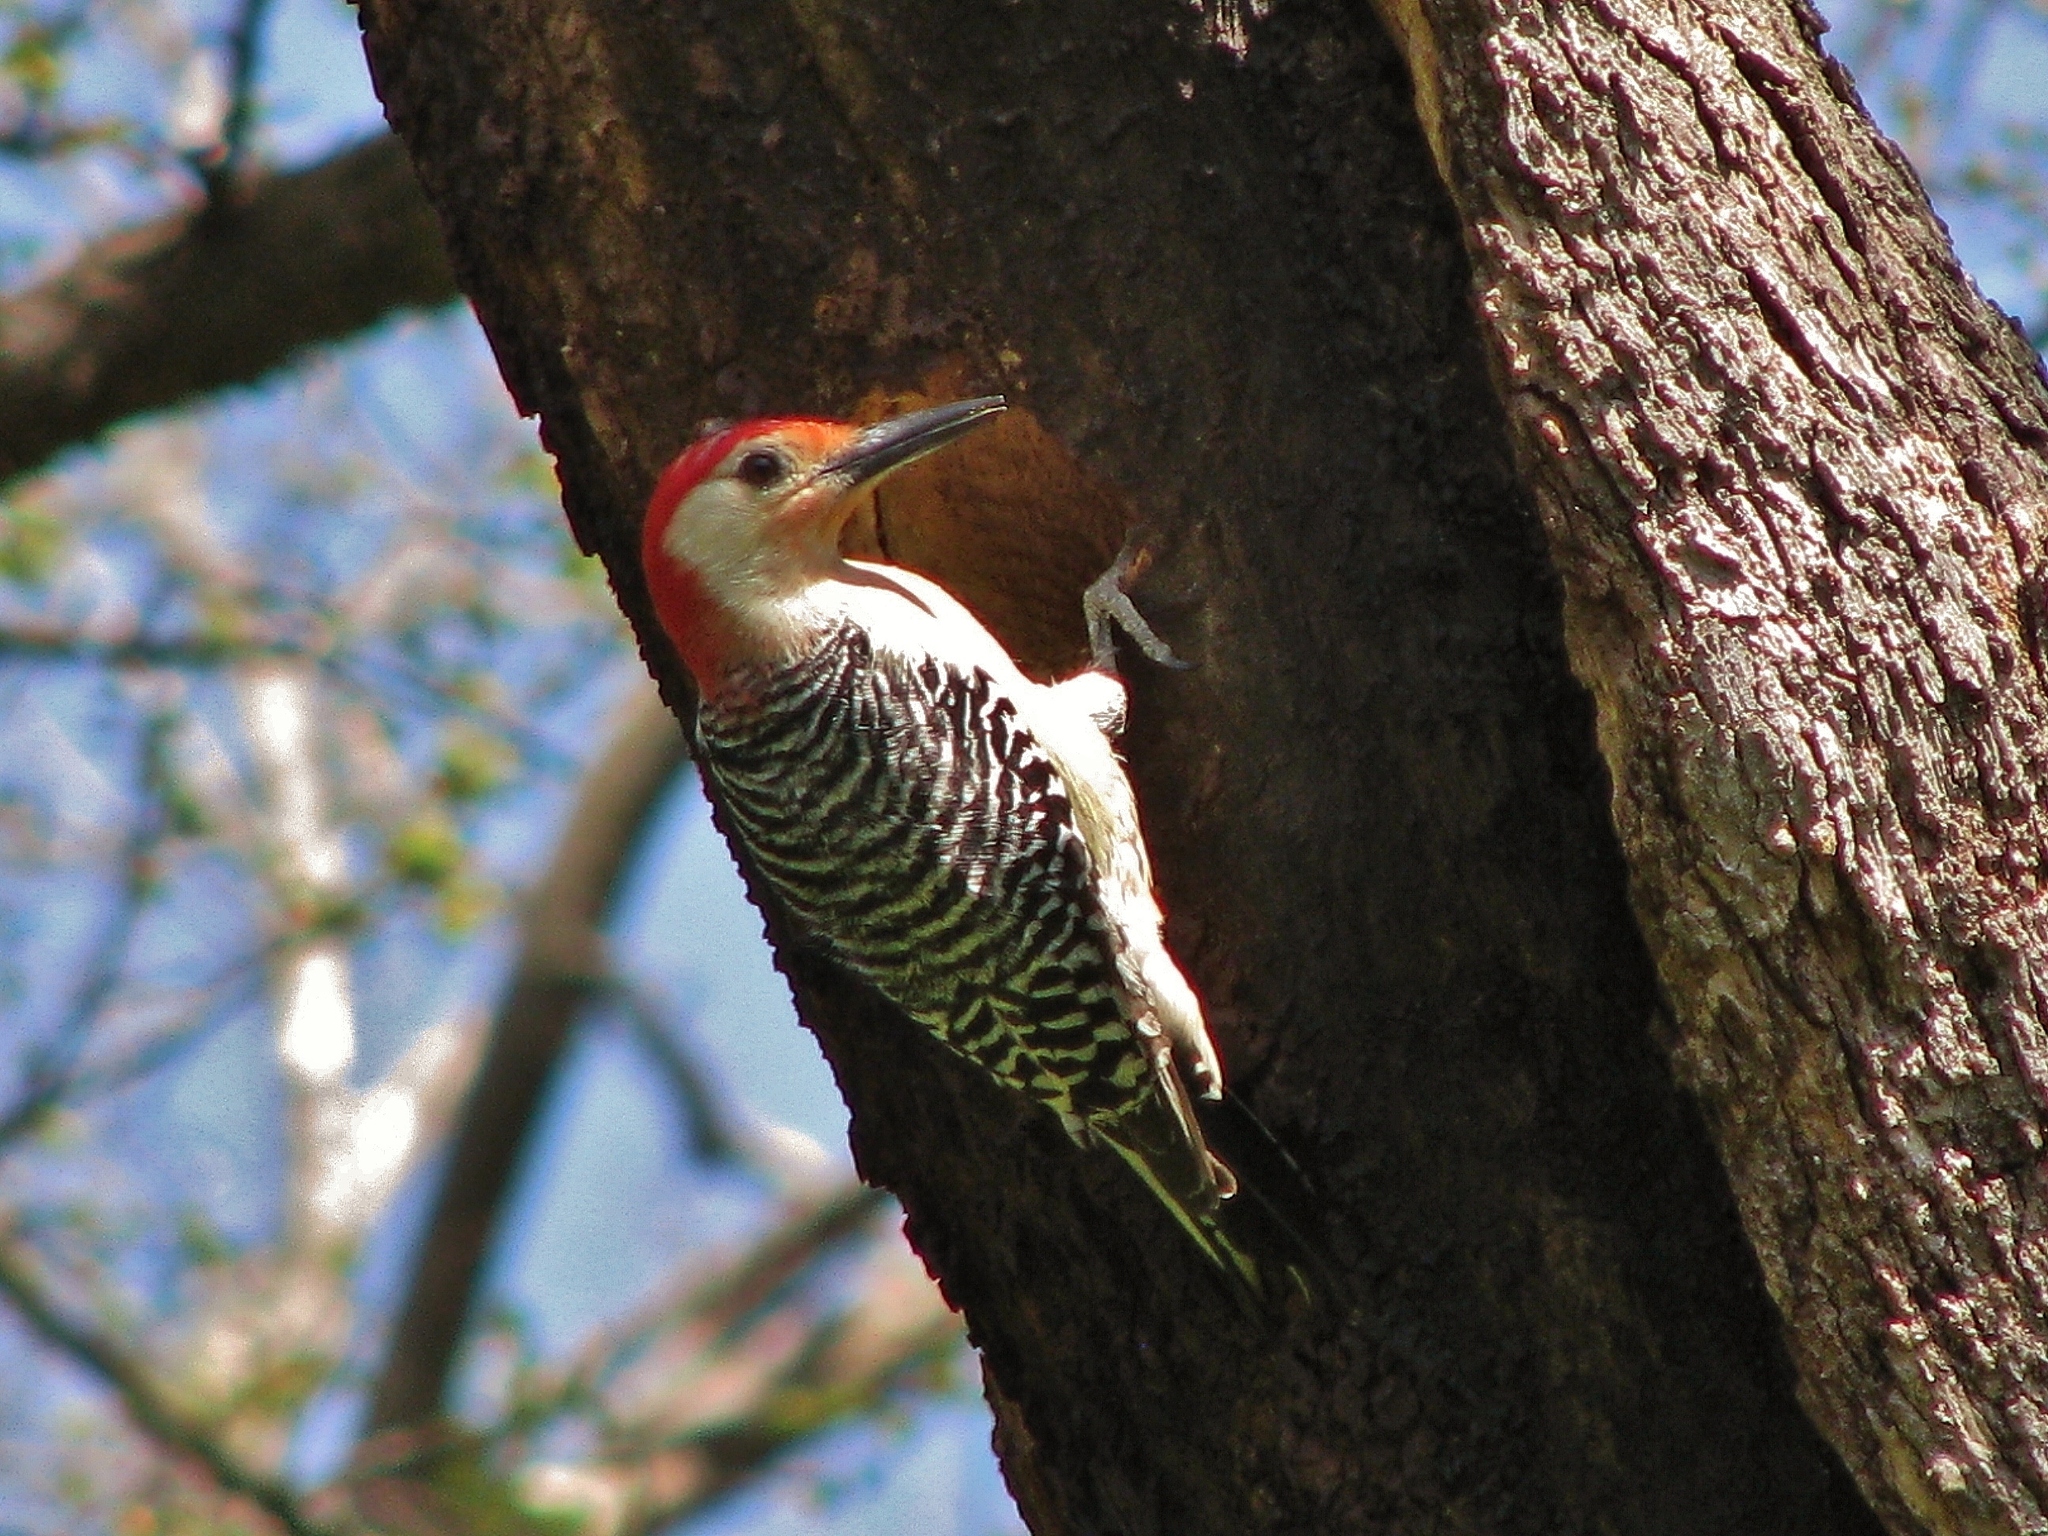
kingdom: Animalia
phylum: Chordata
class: Aves
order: Piciformes
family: Picidae
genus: Melanerpes
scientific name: Melanerpes carolinus
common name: Red-bellied woodpecker
